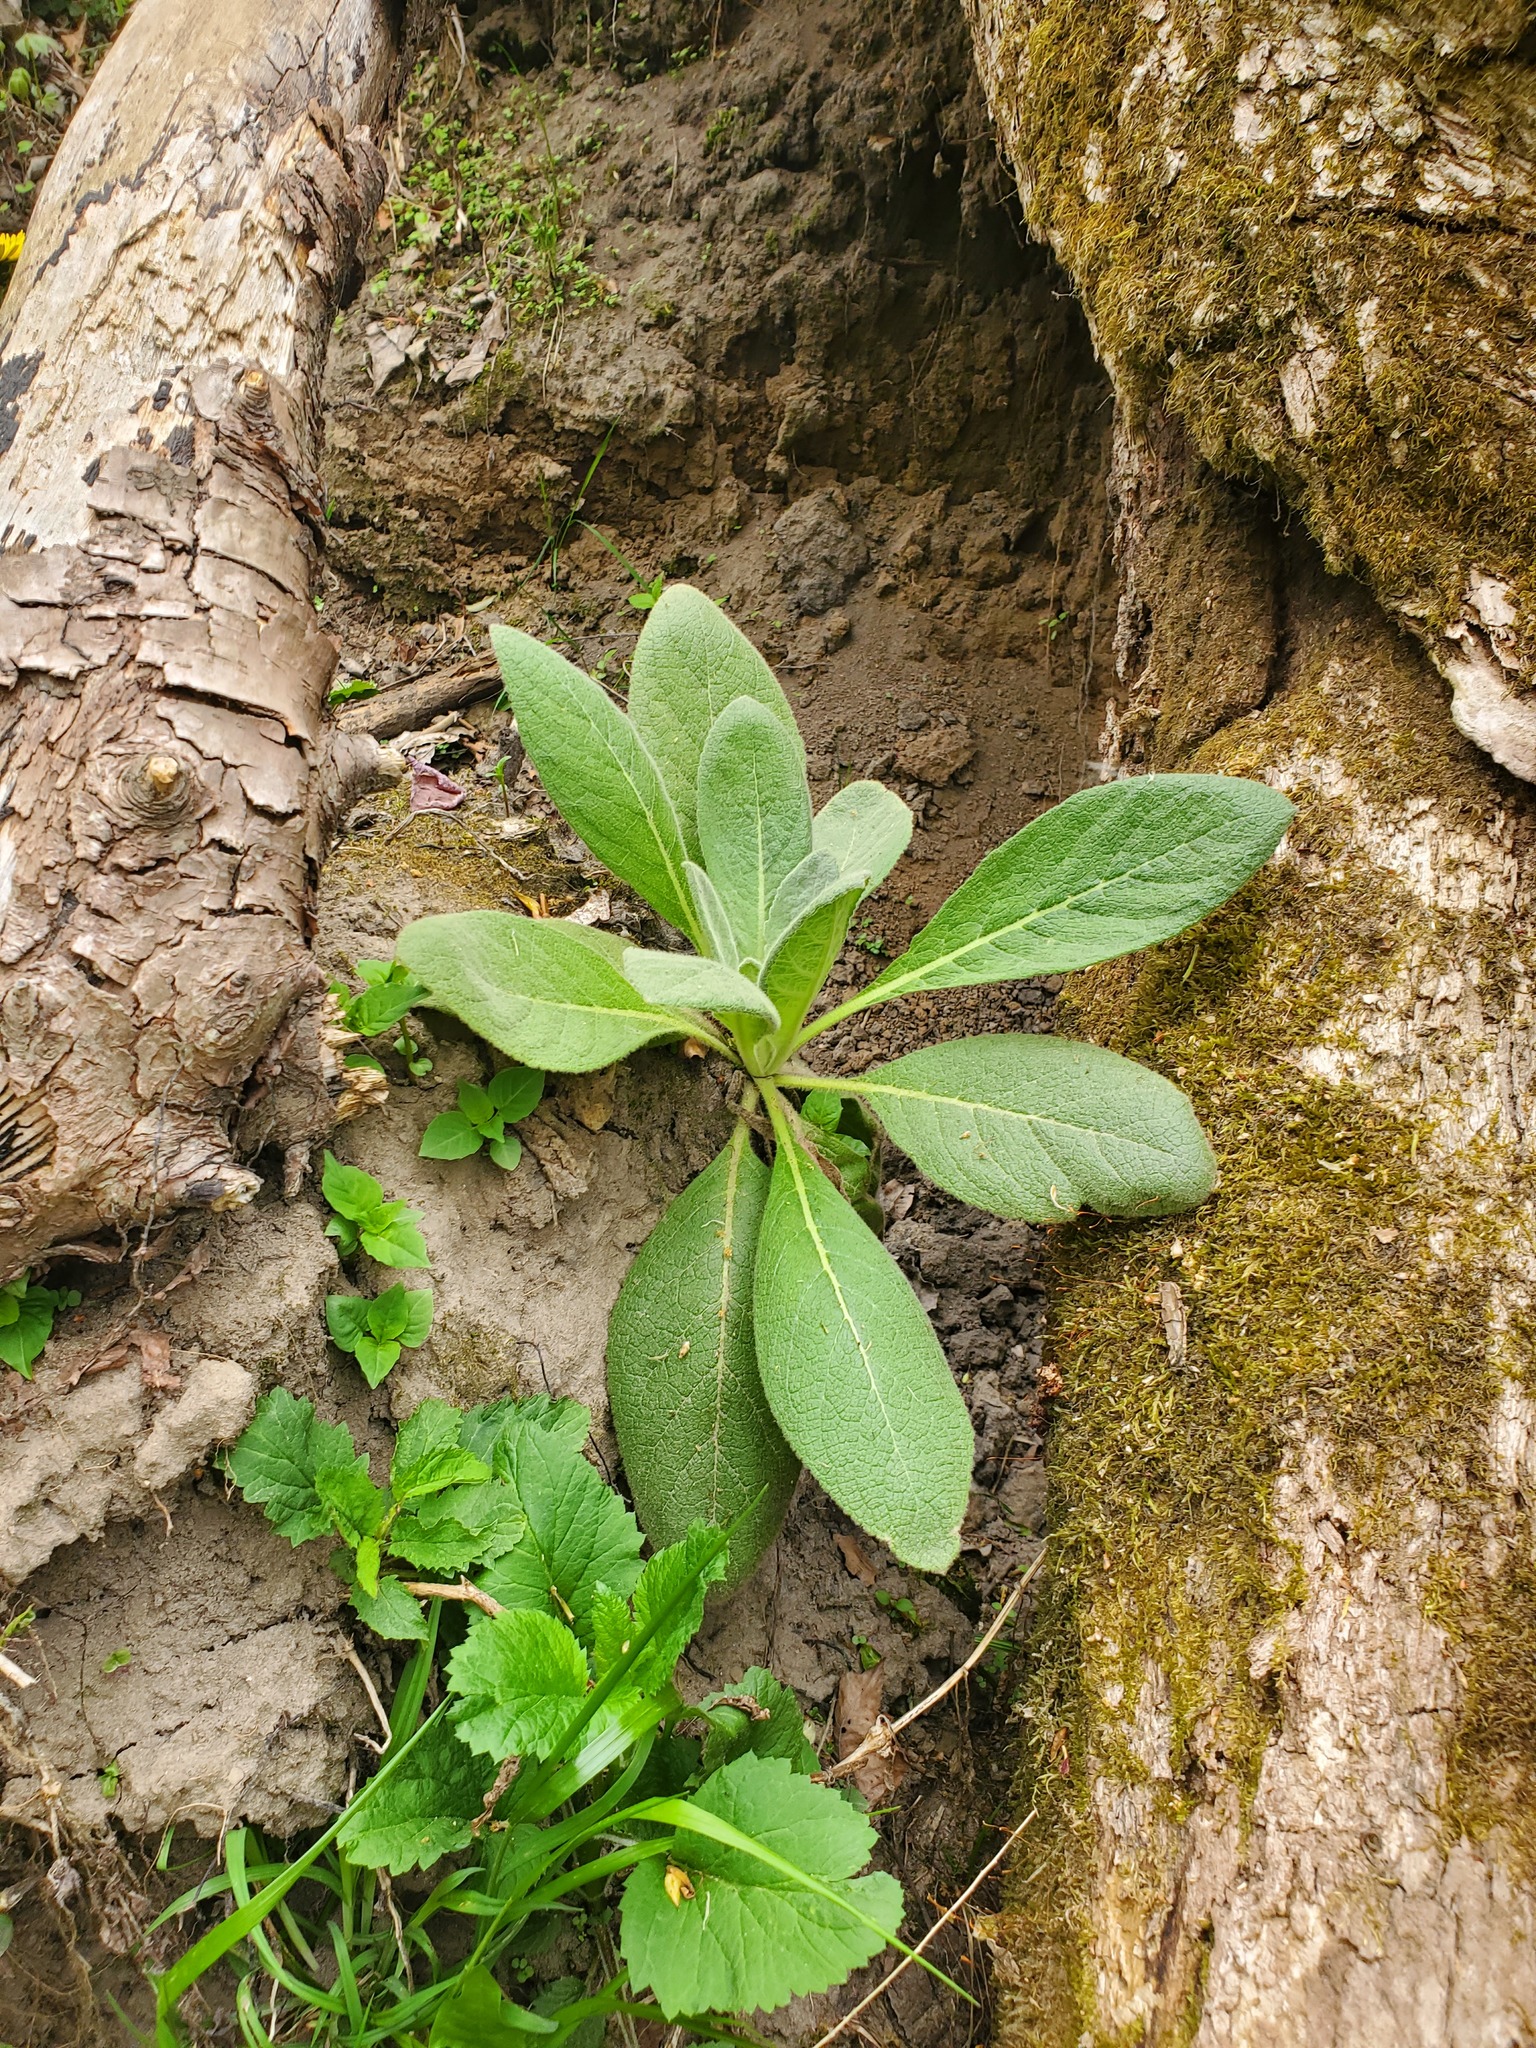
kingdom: Plantae
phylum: Tracheophyta
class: Magnoliopsida
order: Lamiales
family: Scrophulariaceae
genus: Verbascum
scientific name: Verbascum thapsus
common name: Common mullein
